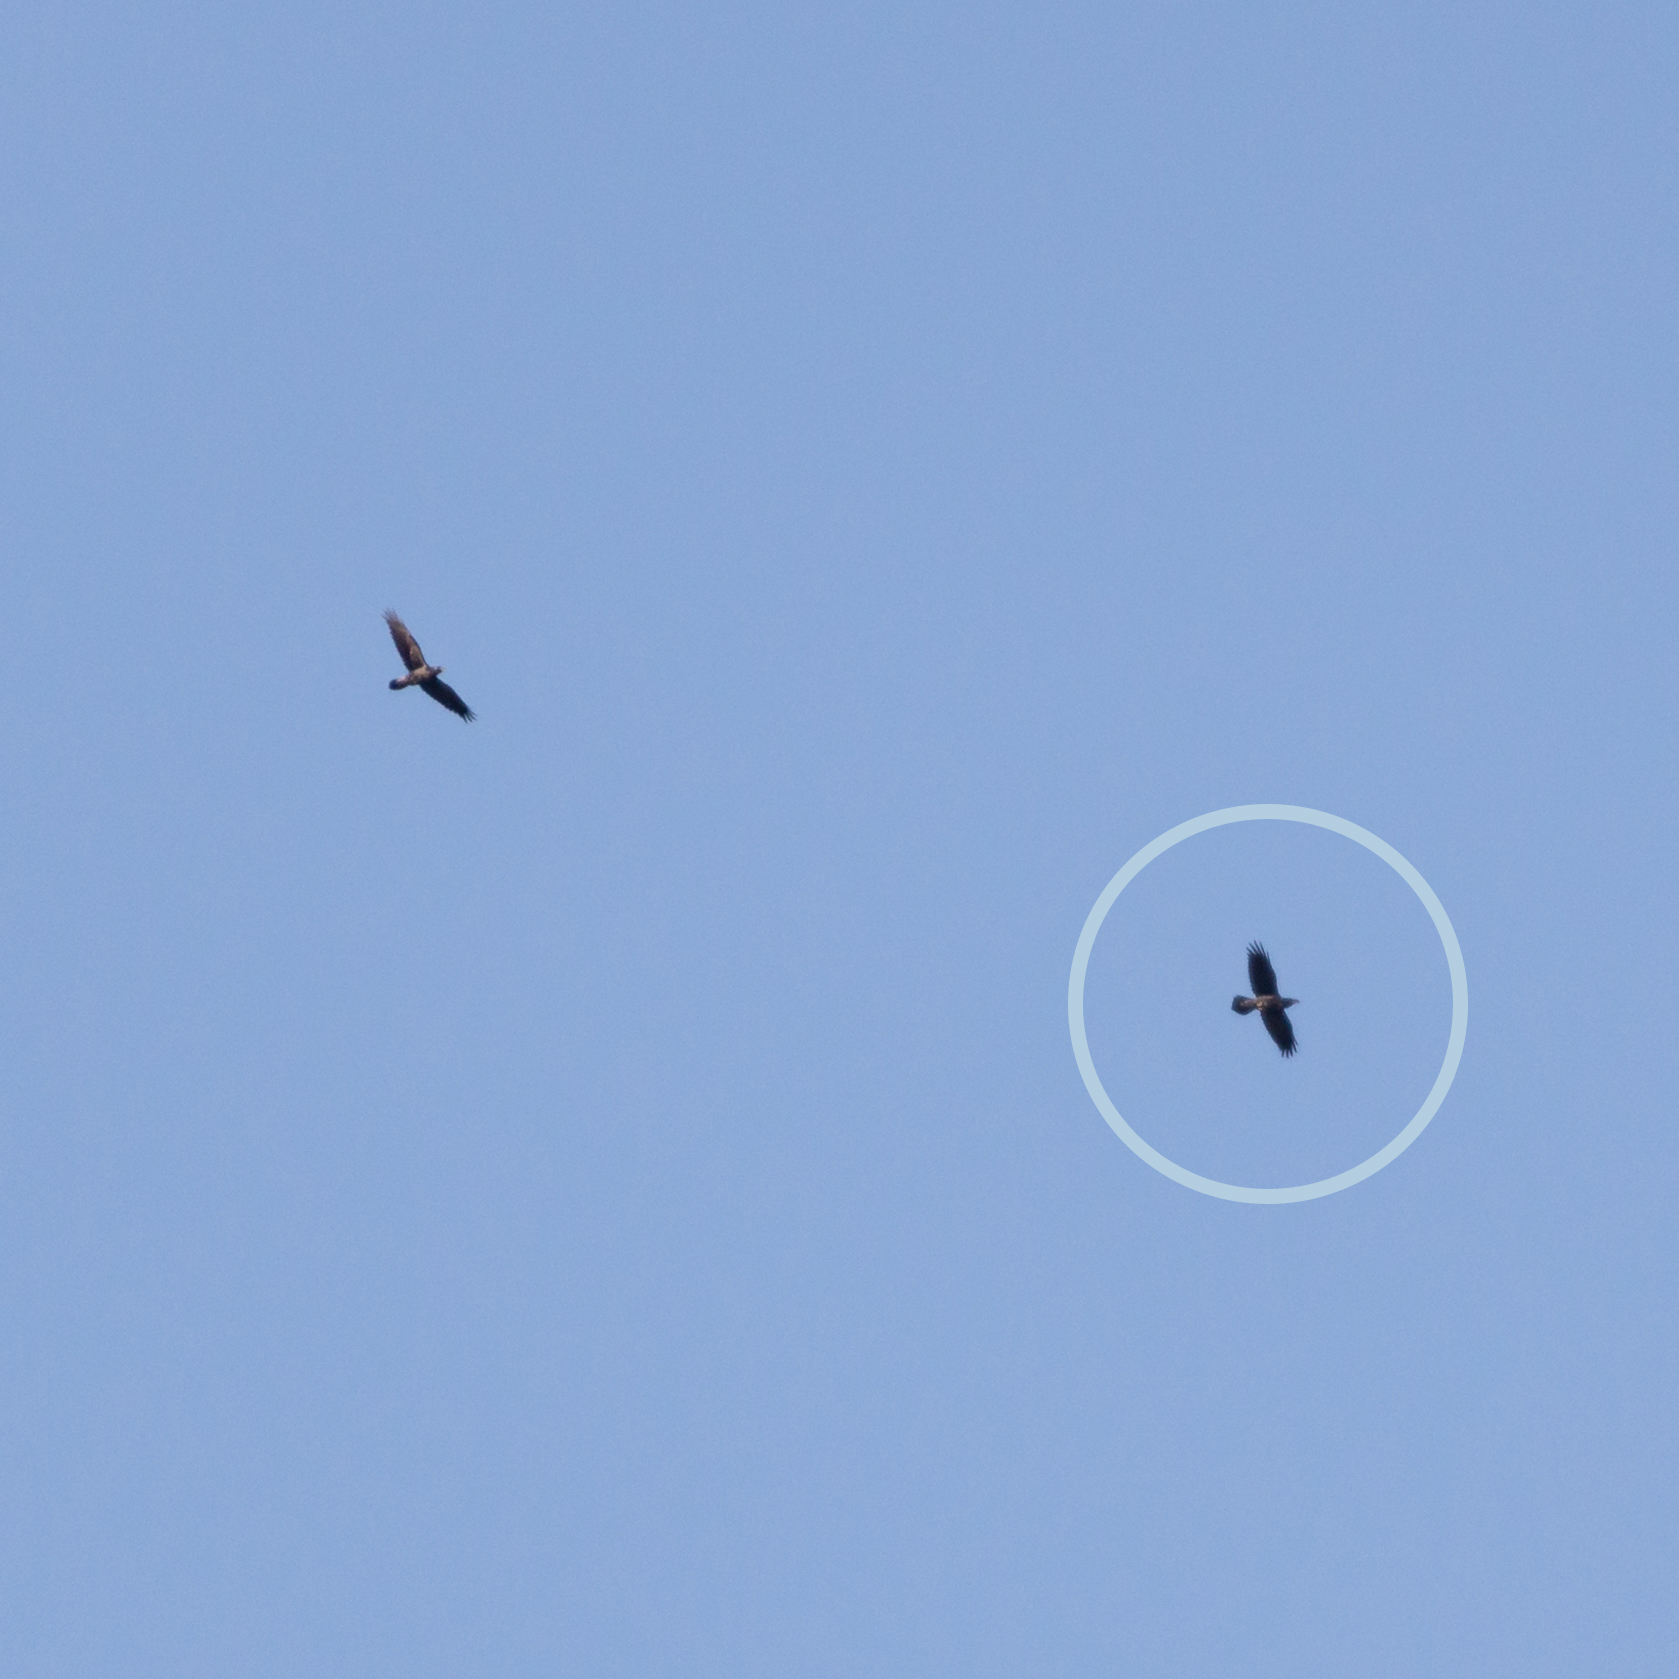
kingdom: Animalia
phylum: Chordata
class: Aves
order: Passeriformes
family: Corvidae
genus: Corvus
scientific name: Corvus corax
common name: Common raven
